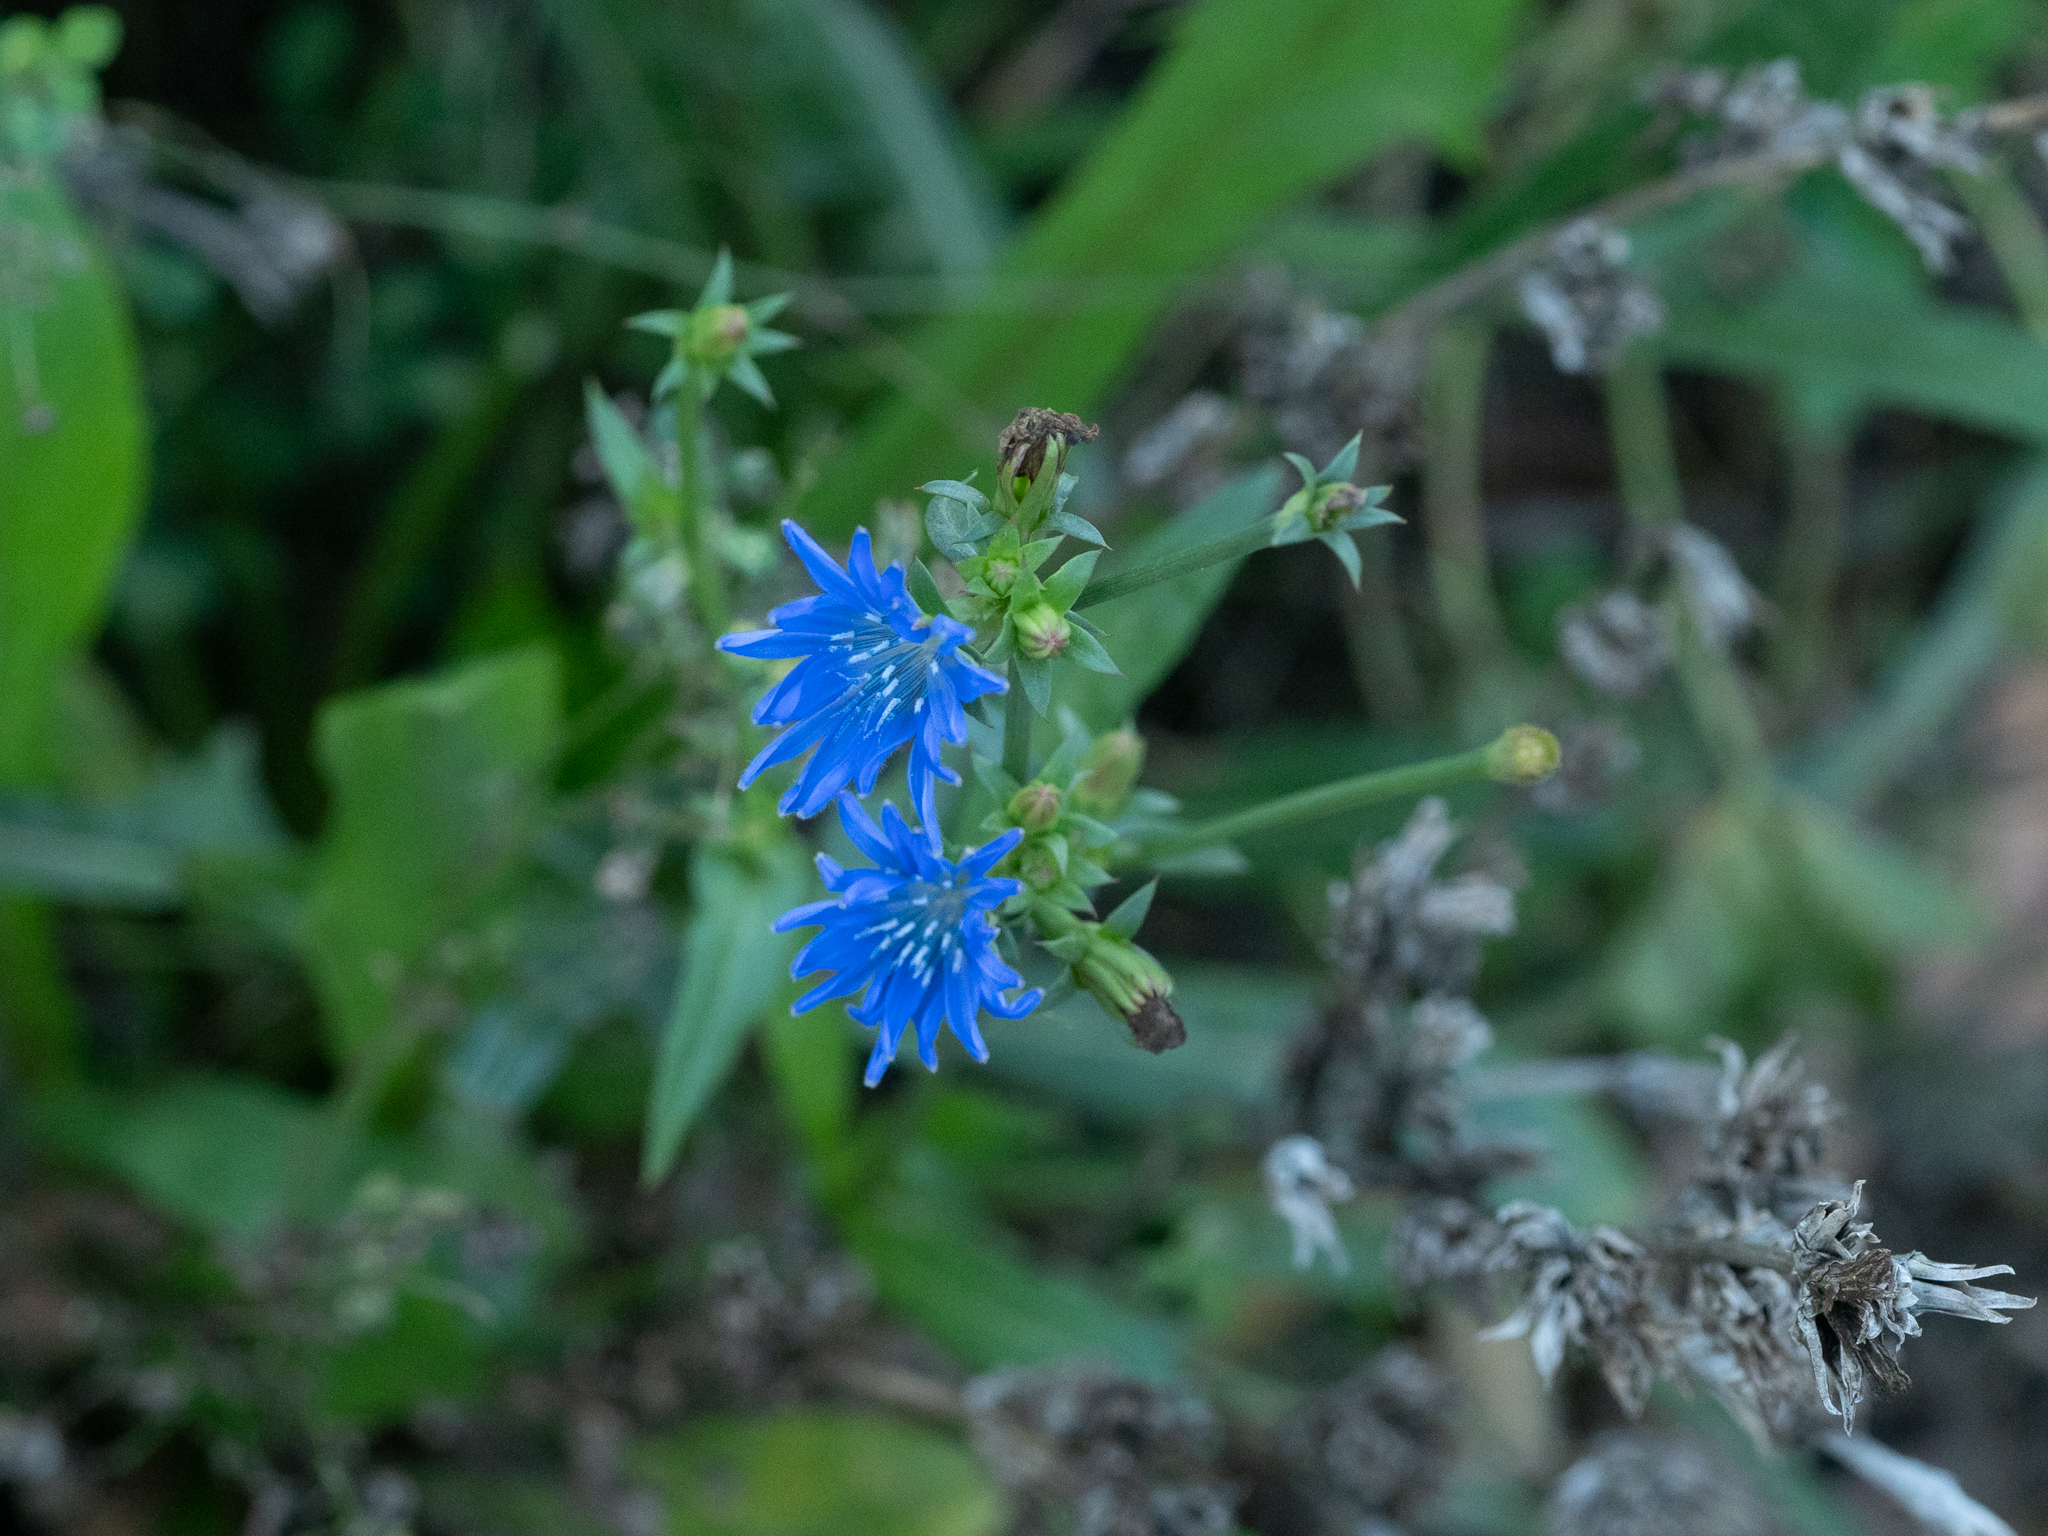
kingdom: Plantae
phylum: Tracheophyta
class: Magnoliopsida
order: Asterales
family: Asteraceae
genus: Cichorium
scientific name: Cichorium intybus
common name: Chicory
